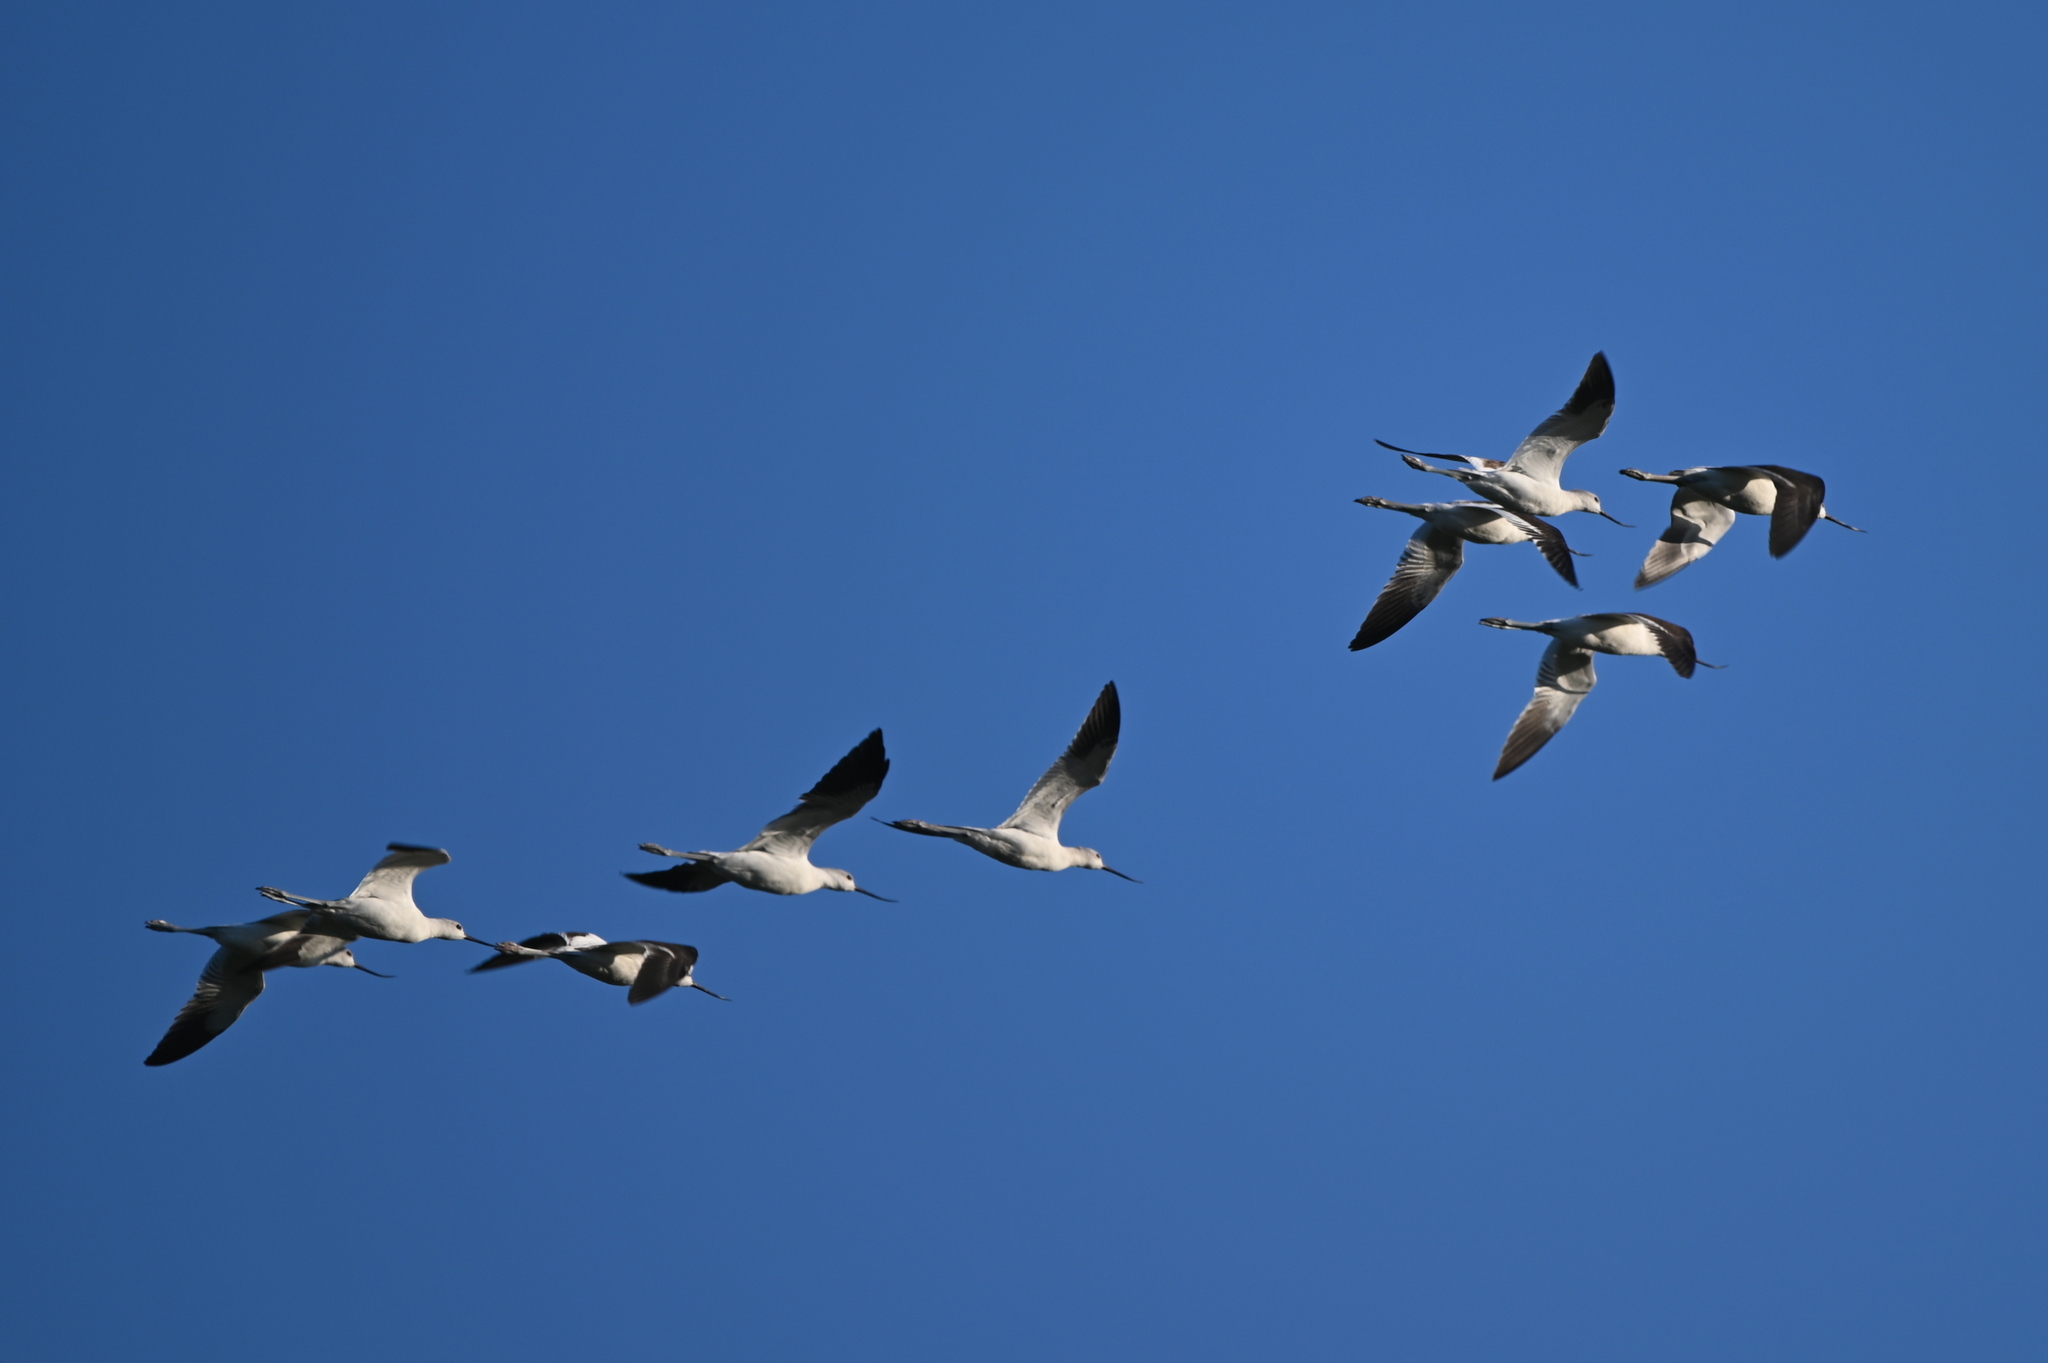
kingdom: Animalia
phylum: Chordata
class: Aves
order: Charadriiformes
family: Recurvirostridae
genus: Recurvirostra
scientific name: Recurvirostra americana
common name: American avocet
